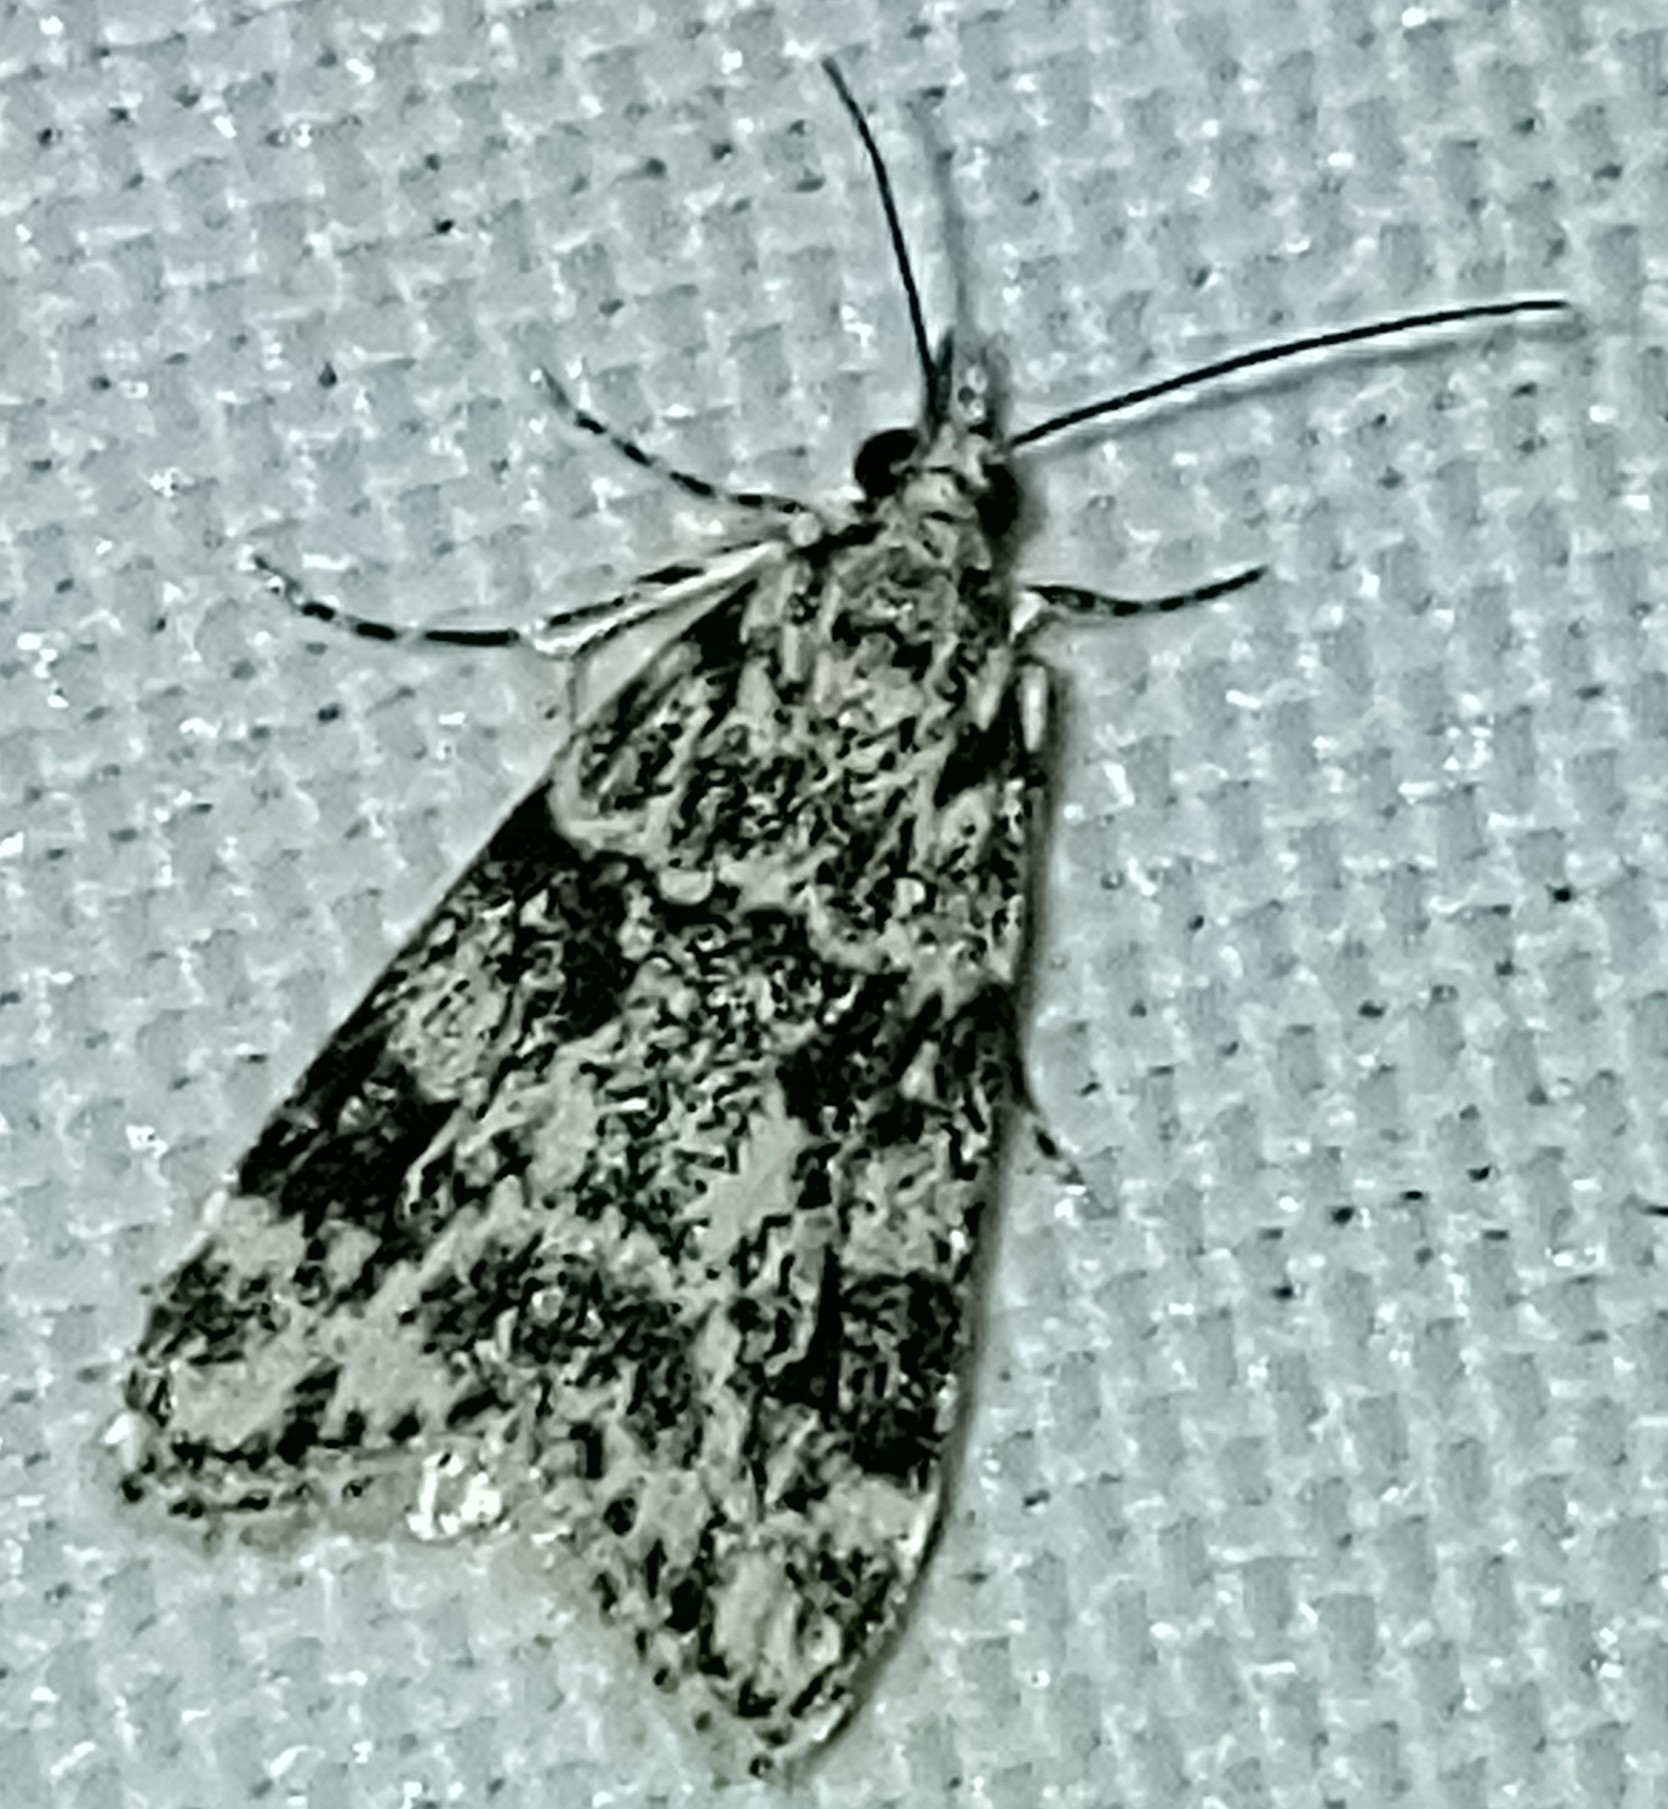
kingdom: Animalia
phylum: Arthropoda
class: Insecta
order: Lepidoptera
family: Crambidae
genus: Eudonia
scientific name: Eudonia delunella
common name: Pied grey
